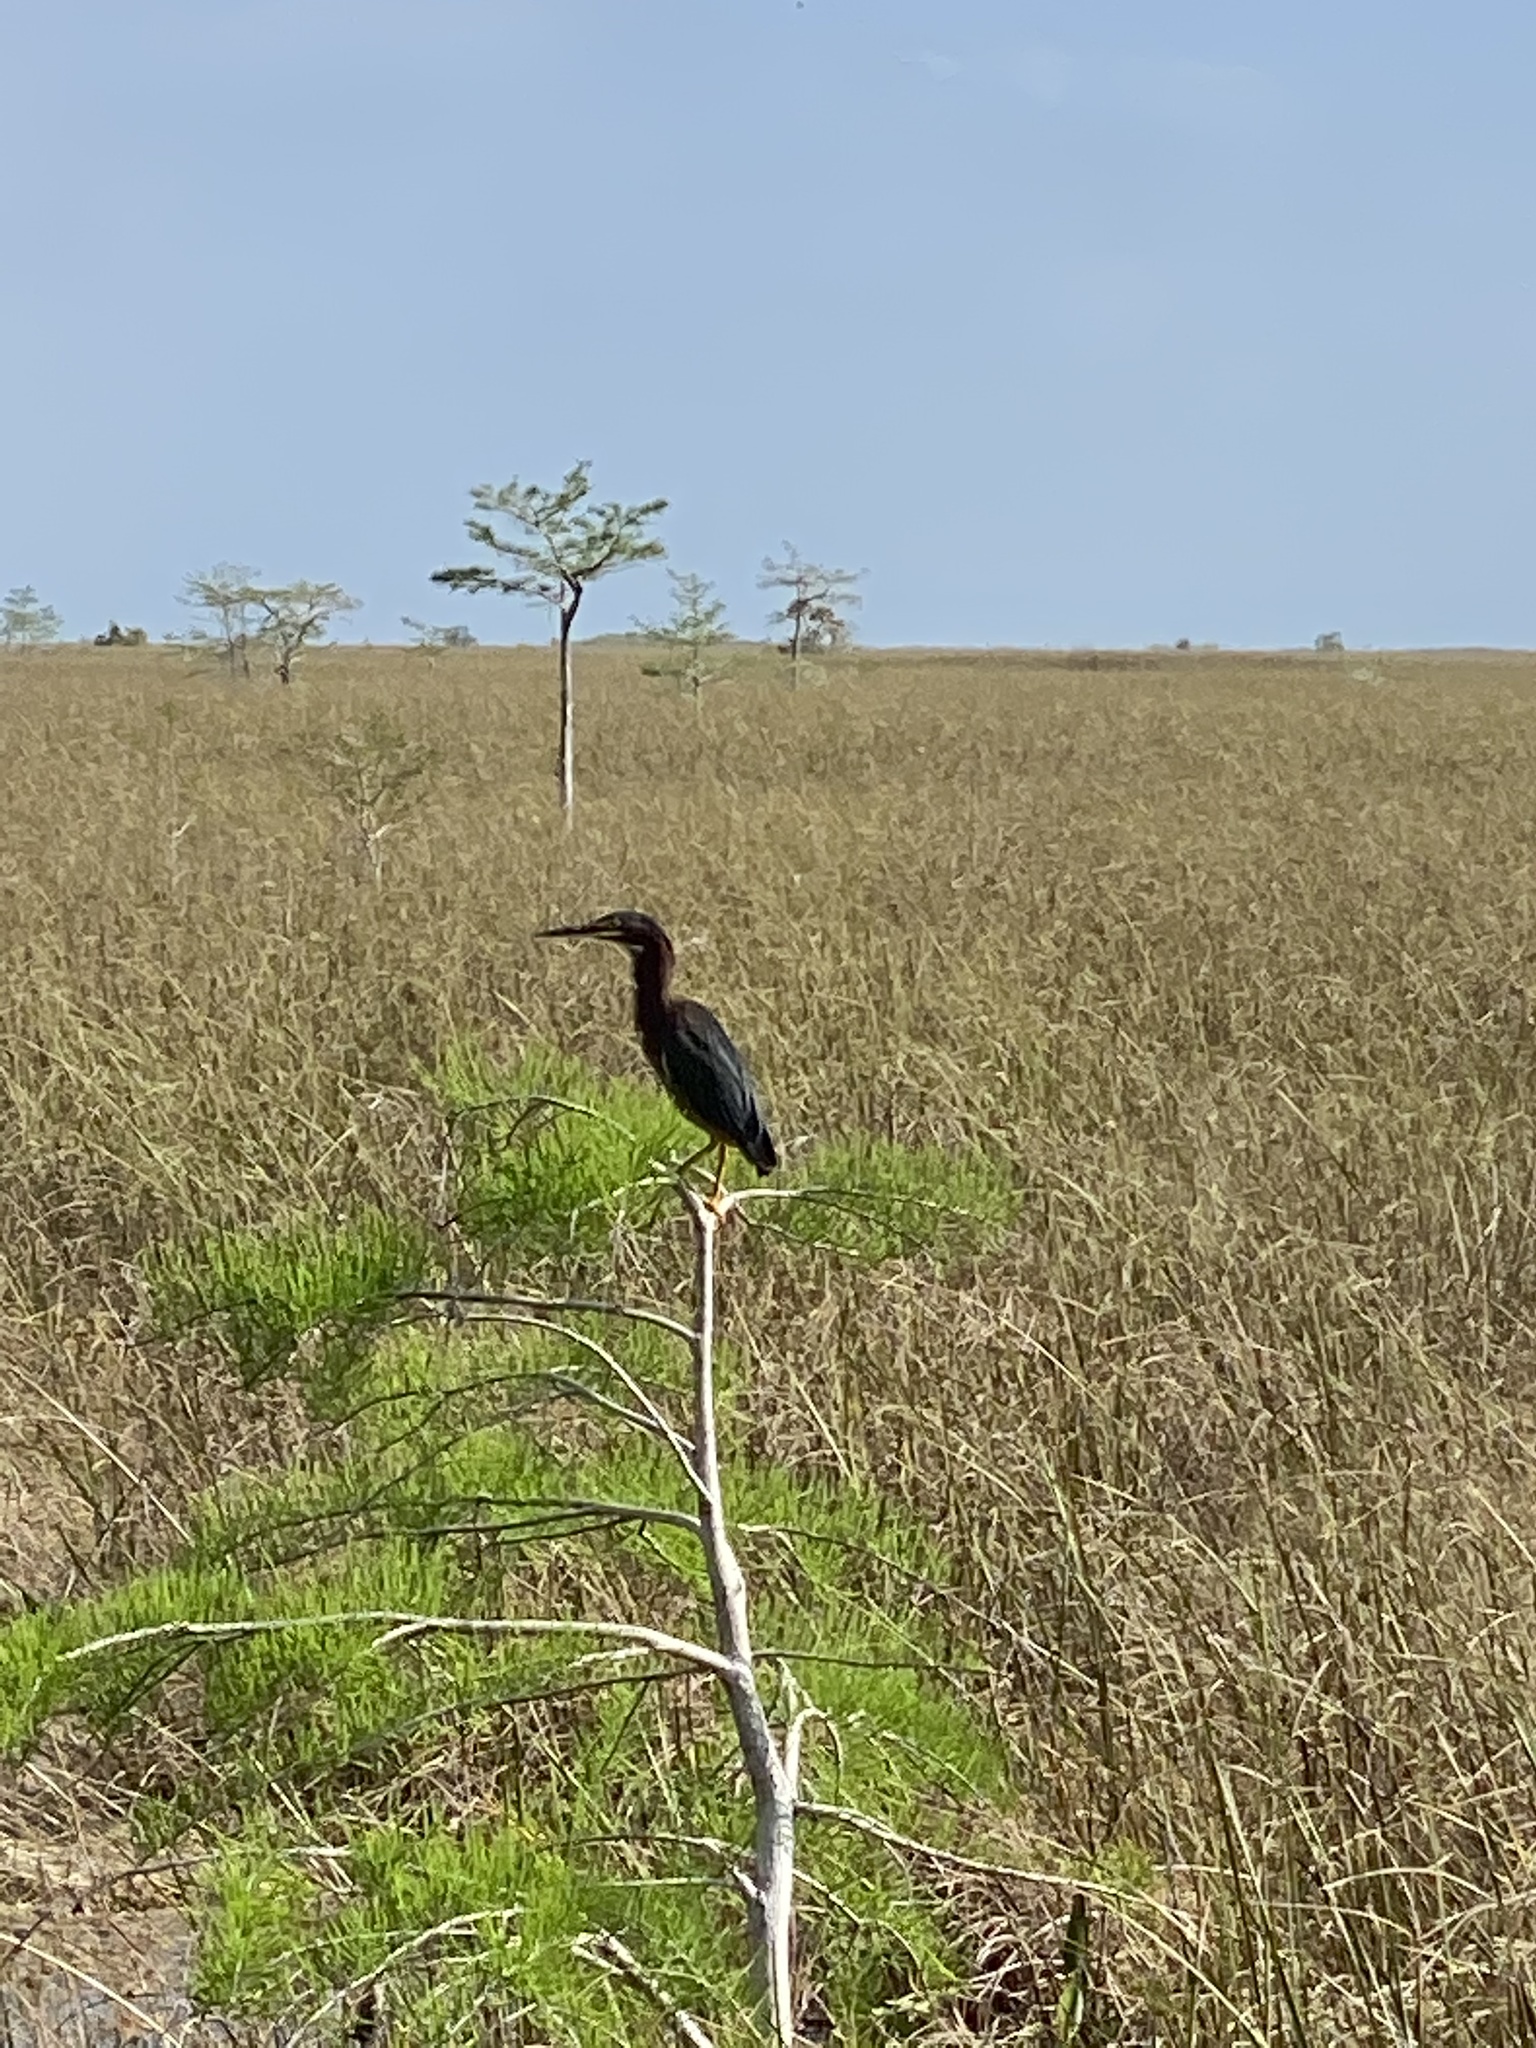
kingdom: Animalia
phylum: Chordata
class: Aves
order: Pelecaniformes
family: Ardeidae
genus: Butorides
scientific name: Butorides virescens
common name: Green heron
